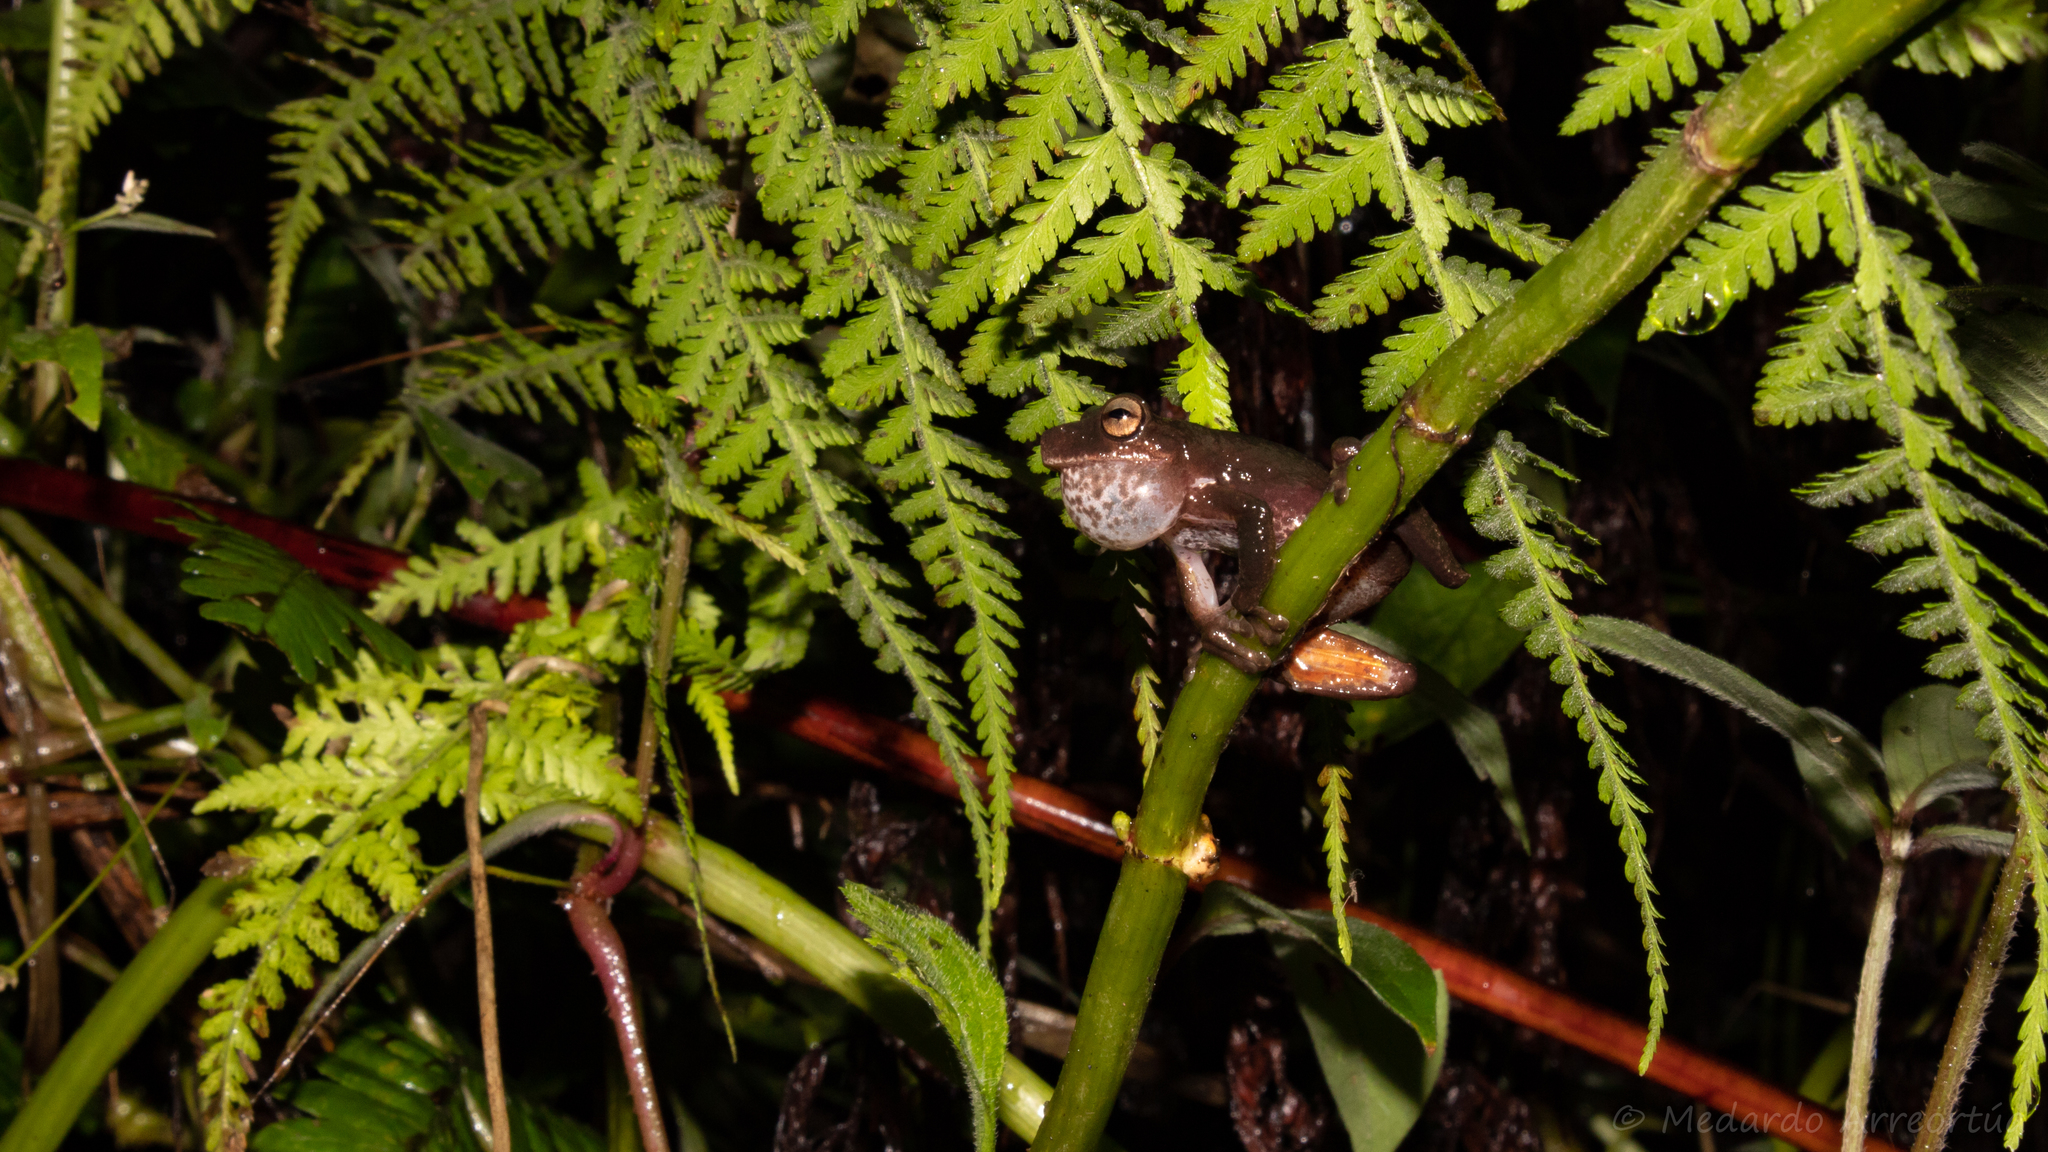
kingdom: Animalia
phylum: Chordata
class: Amphibia
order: Anura
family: Hylidae
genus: Ptychohyla
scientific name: Ptychohyla zophodes
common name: Gloomy mountain stream frog
